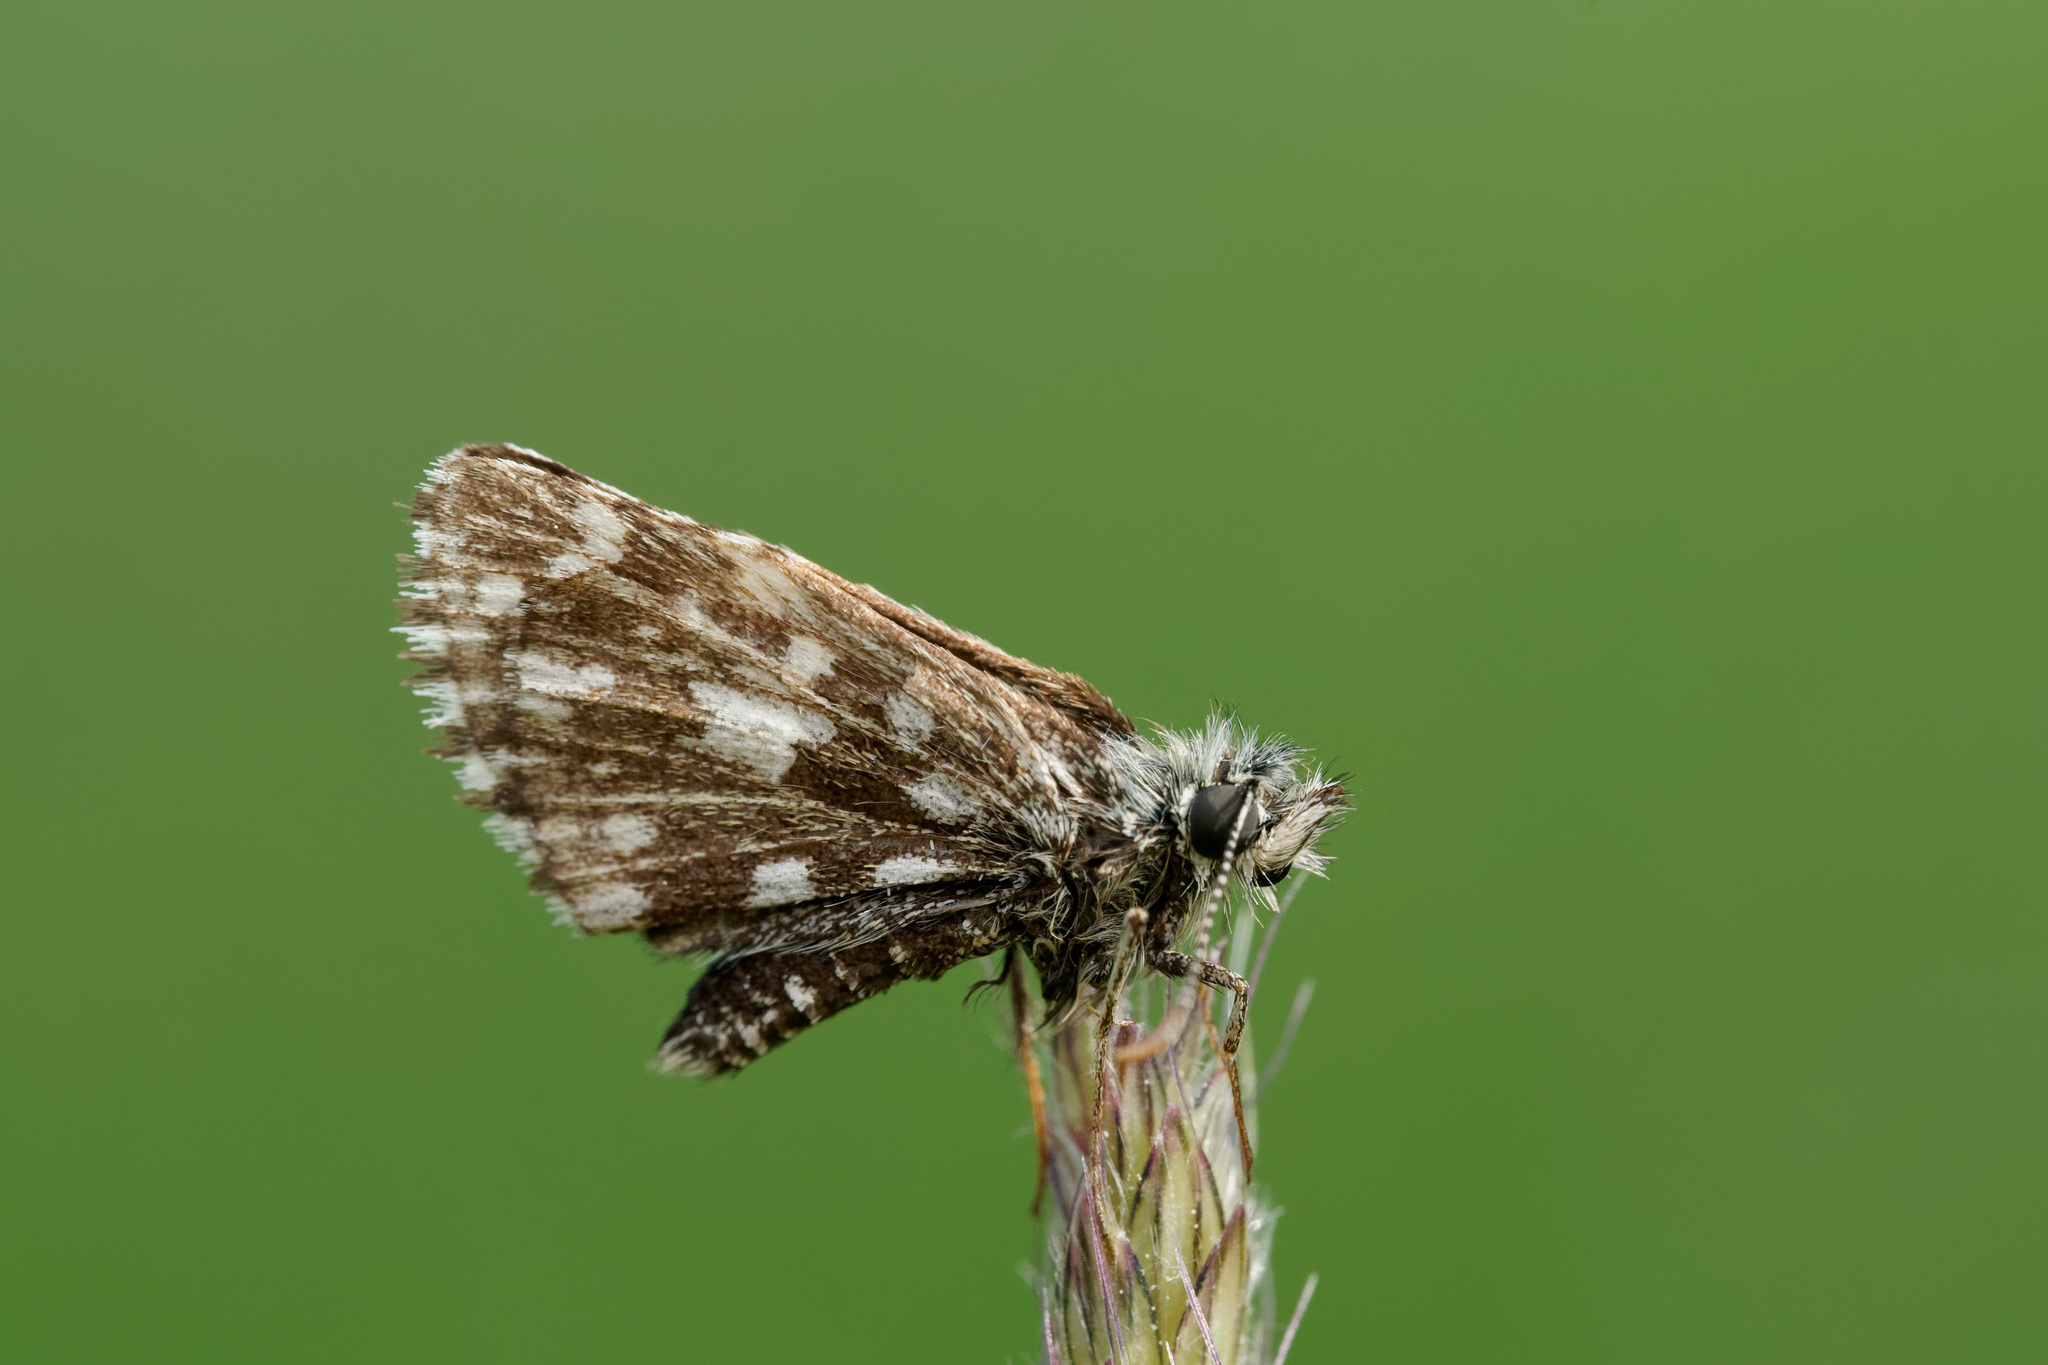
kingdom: Animalia
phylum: Arthropoda
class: Insecta
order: Lepidoptera
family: Hesperiidae
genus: Pyrgus
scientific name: Pyrgus malvae
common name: Grizzled skipper
